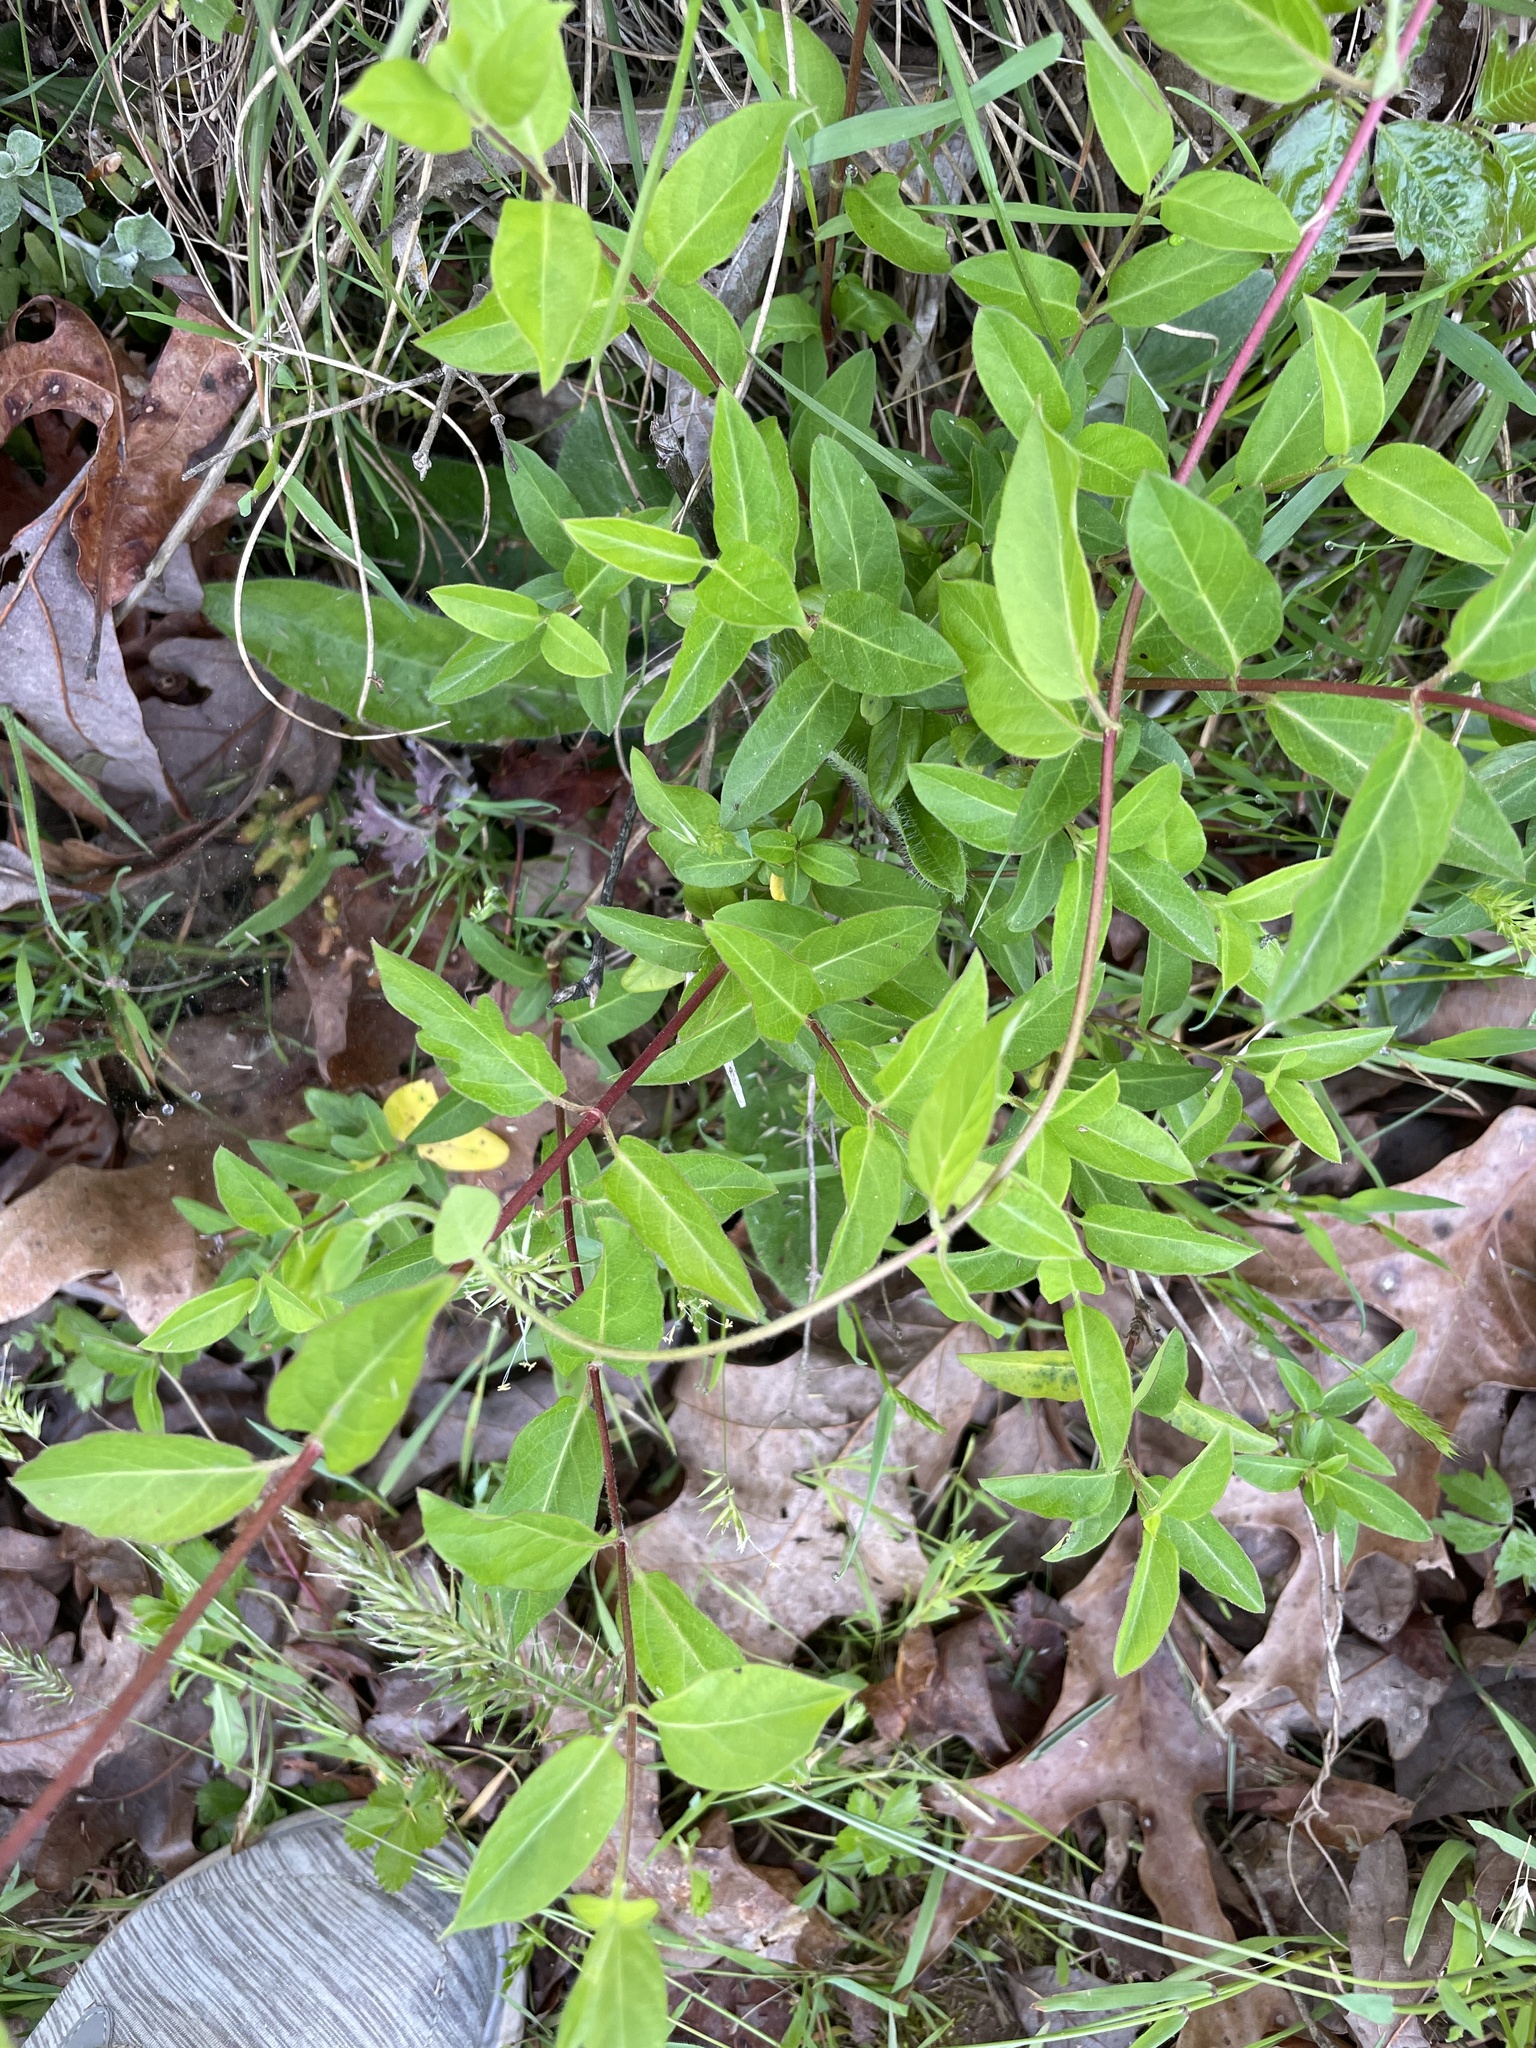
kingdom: Plantae
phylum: Tracheophyta
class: Magnoliopsida
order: Dipsacales
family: Caprifoliaceae
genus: Lonicera
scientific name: Lonicera japonica
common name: Japanese honeysuckle
